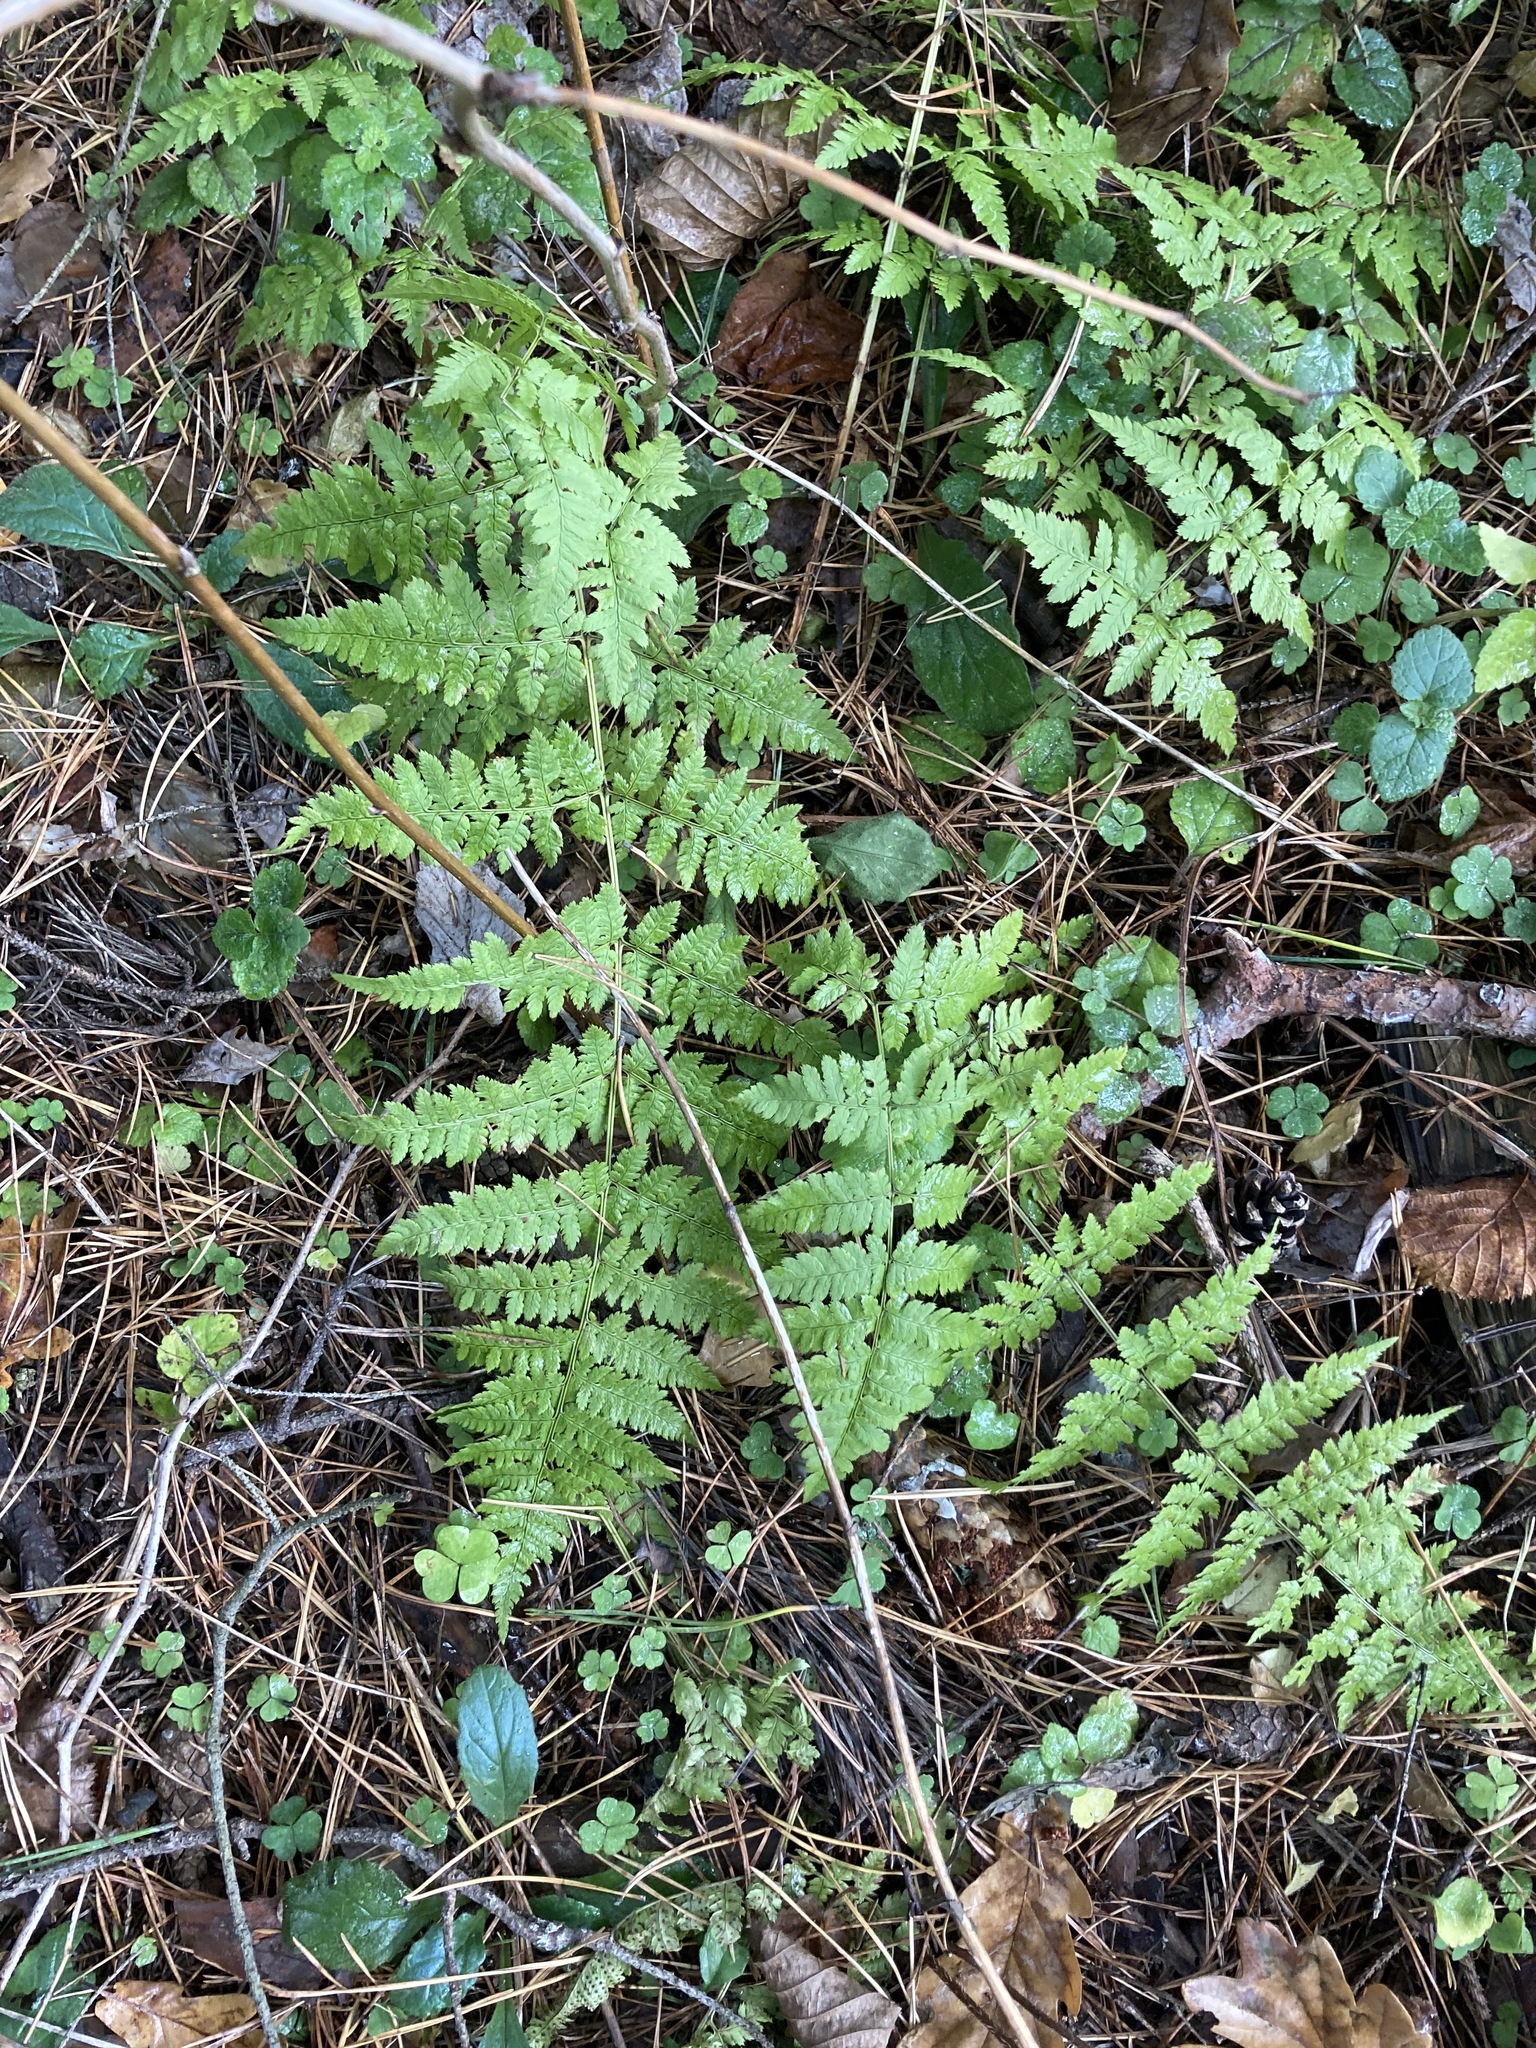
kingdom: Plantae
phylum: Tracheophyta
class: Polypodiopsida
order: Polypodiales
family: Dryopteridaceae
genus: Dryopteris
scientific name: Dryopteris carthusiana
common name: Narrow buckler-fern
